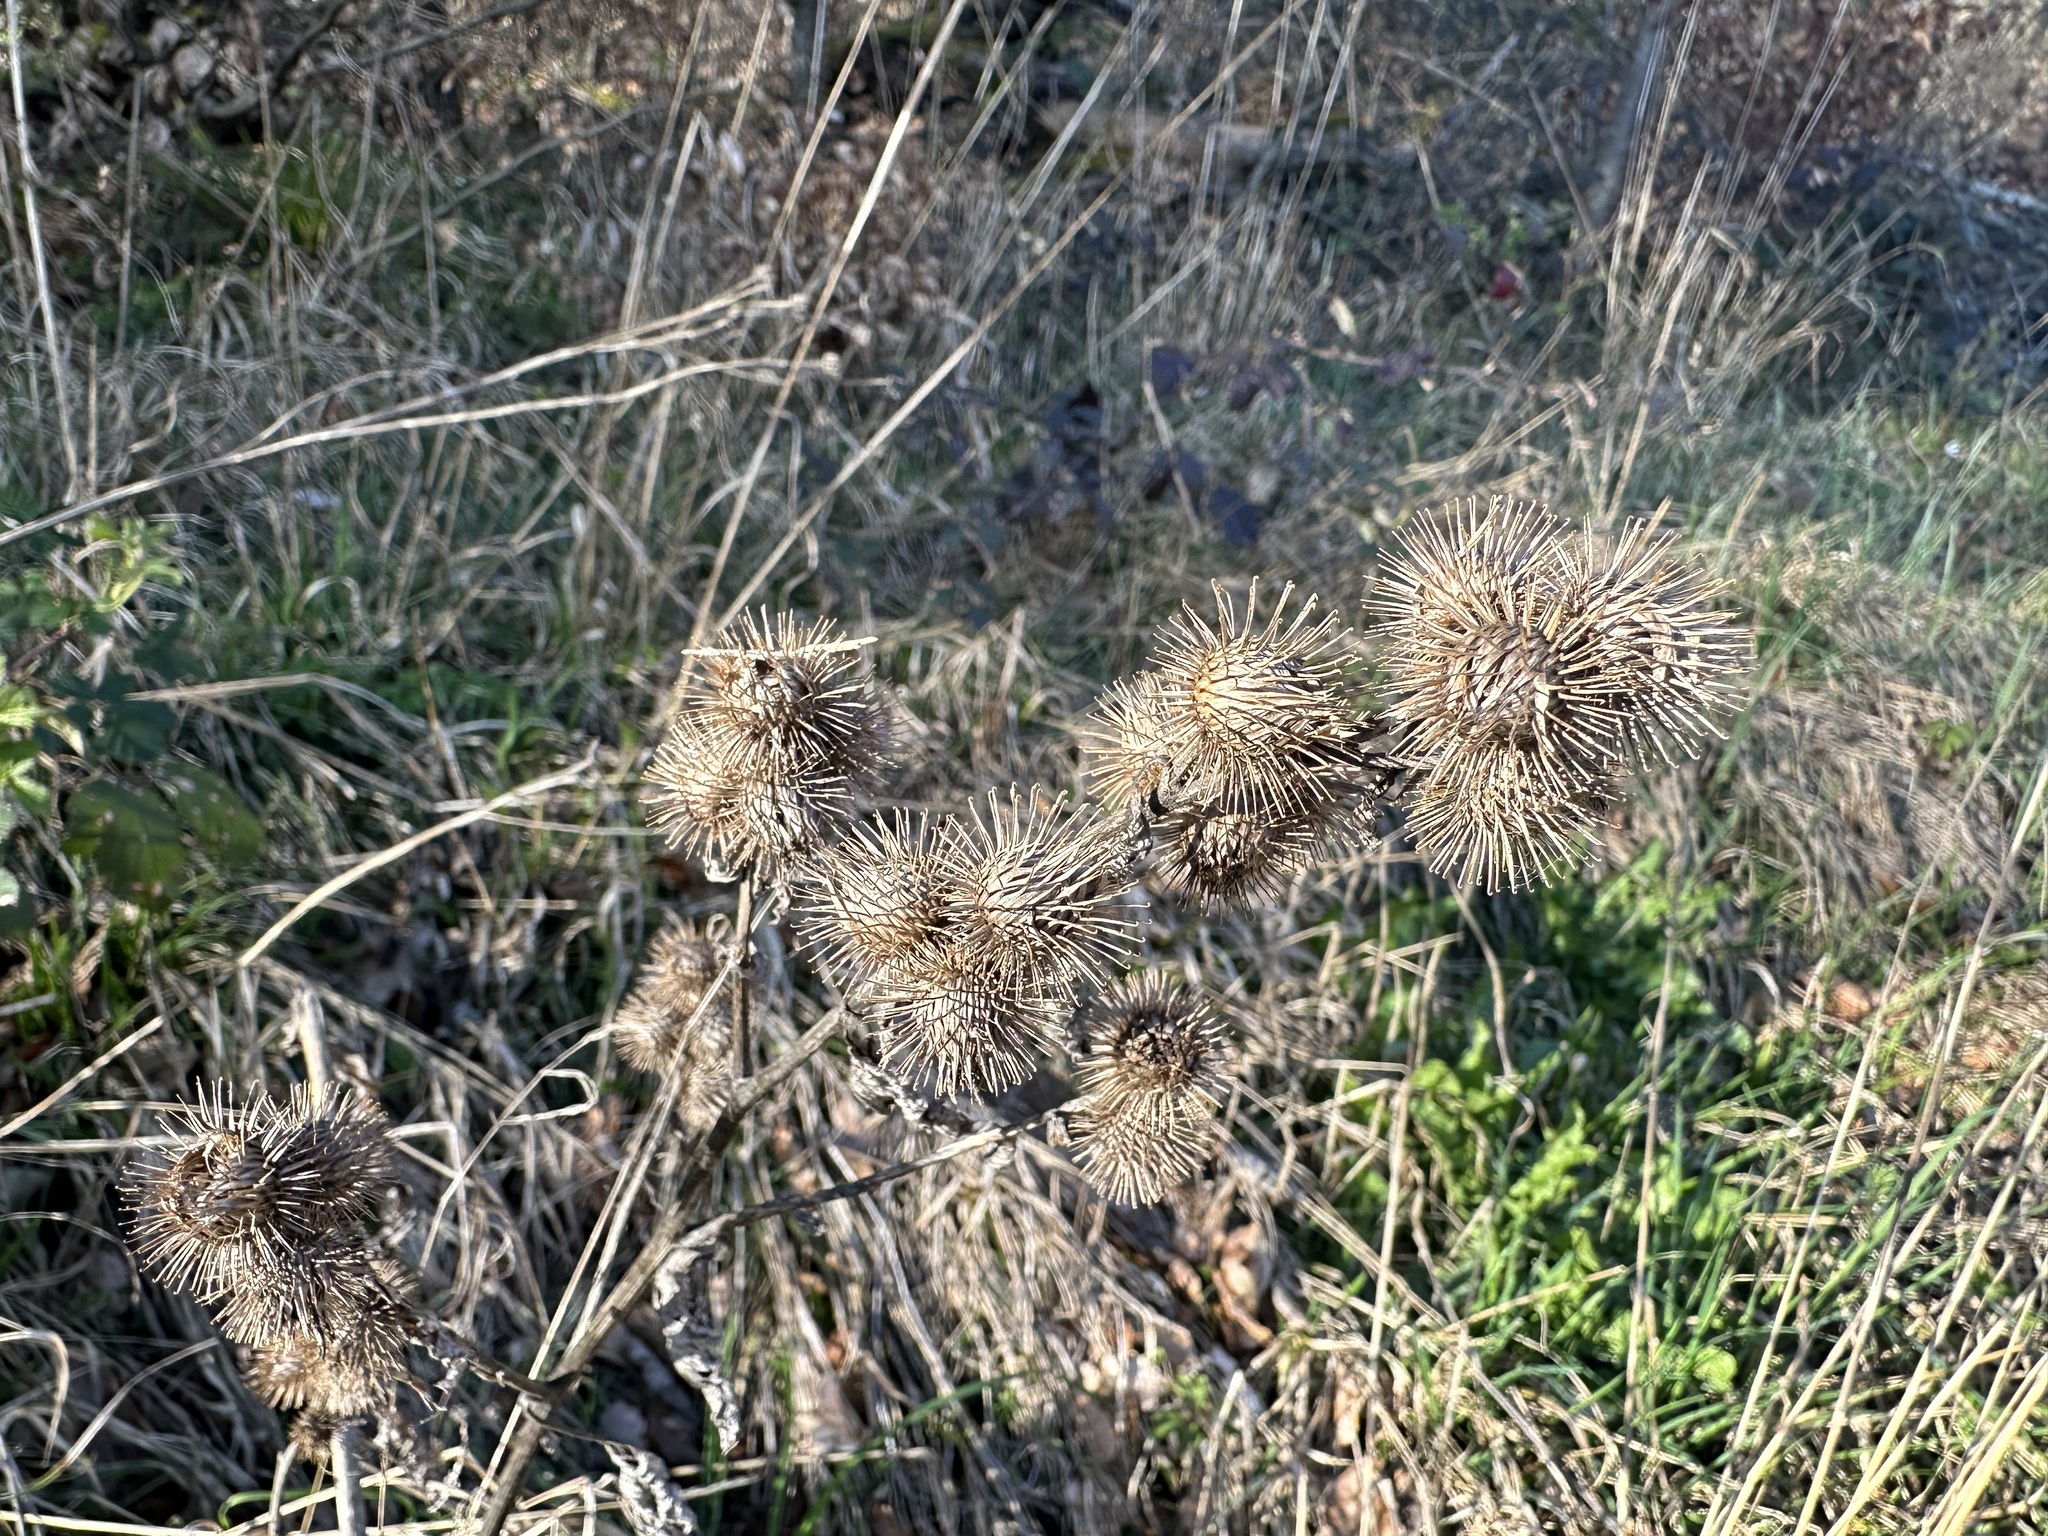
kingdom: Plantae
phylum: Tracheophyta
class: Magnoliopsida
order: Asterales
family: Asteraceae
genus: Arctium
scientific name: Arctium lappa
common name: Greater burdock
